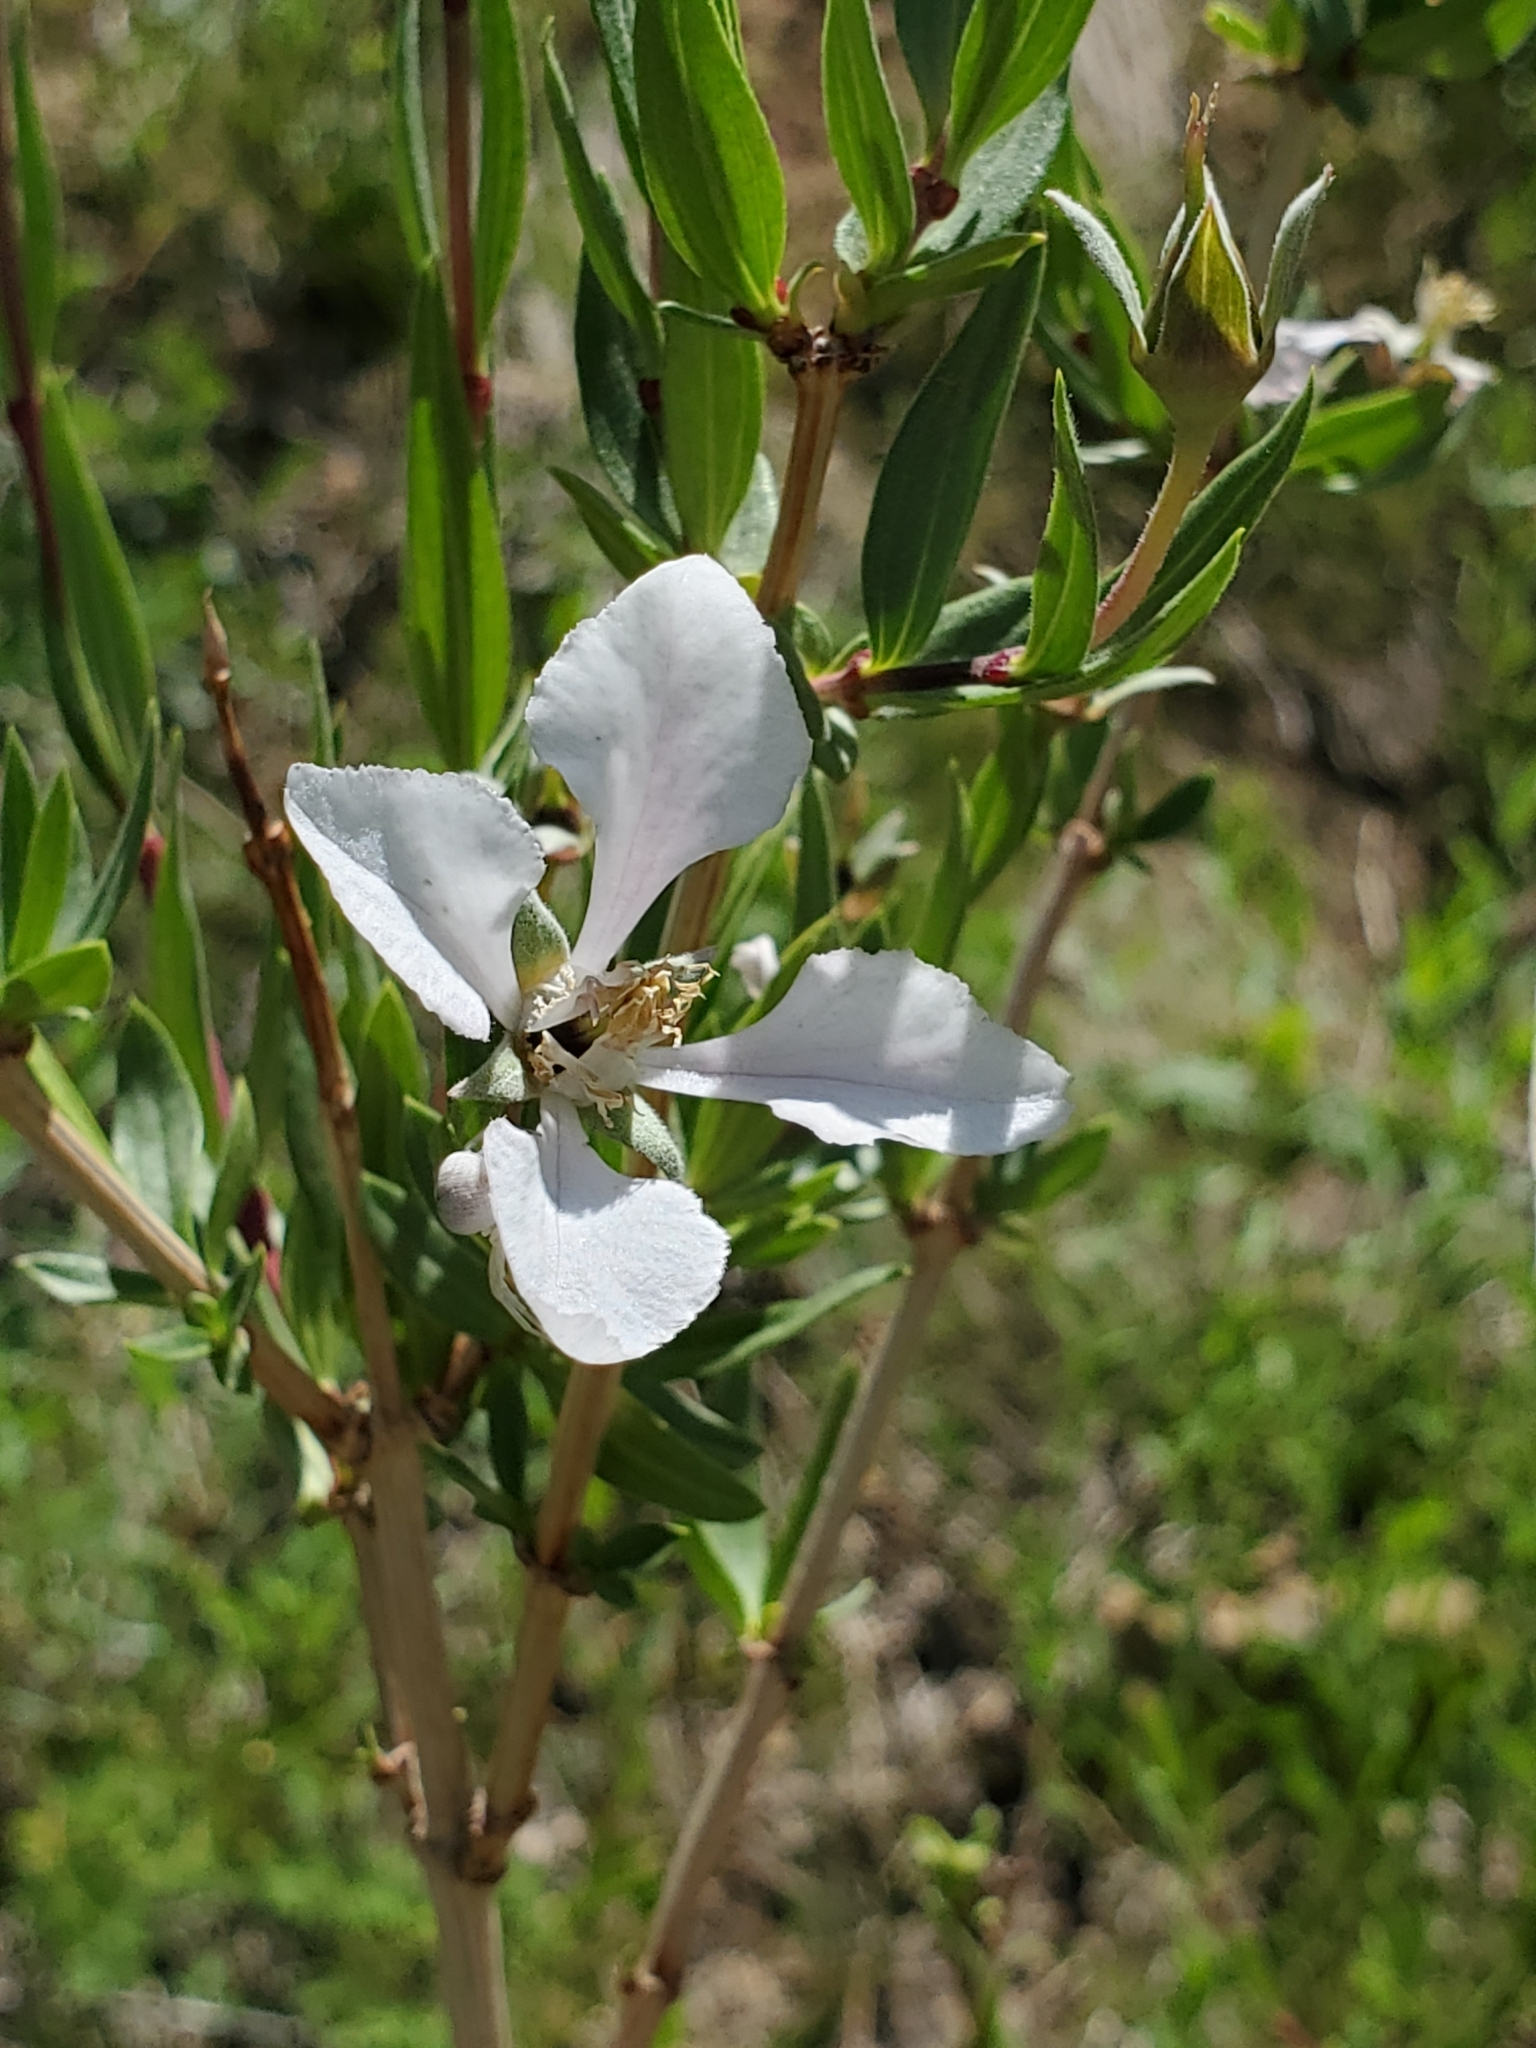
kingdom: Plantae
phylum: Tracheophyta
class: Magnoliopsida
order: Cornales
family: Hydrangeaceae
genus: Fendlera
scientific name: Fendlera rupicola
